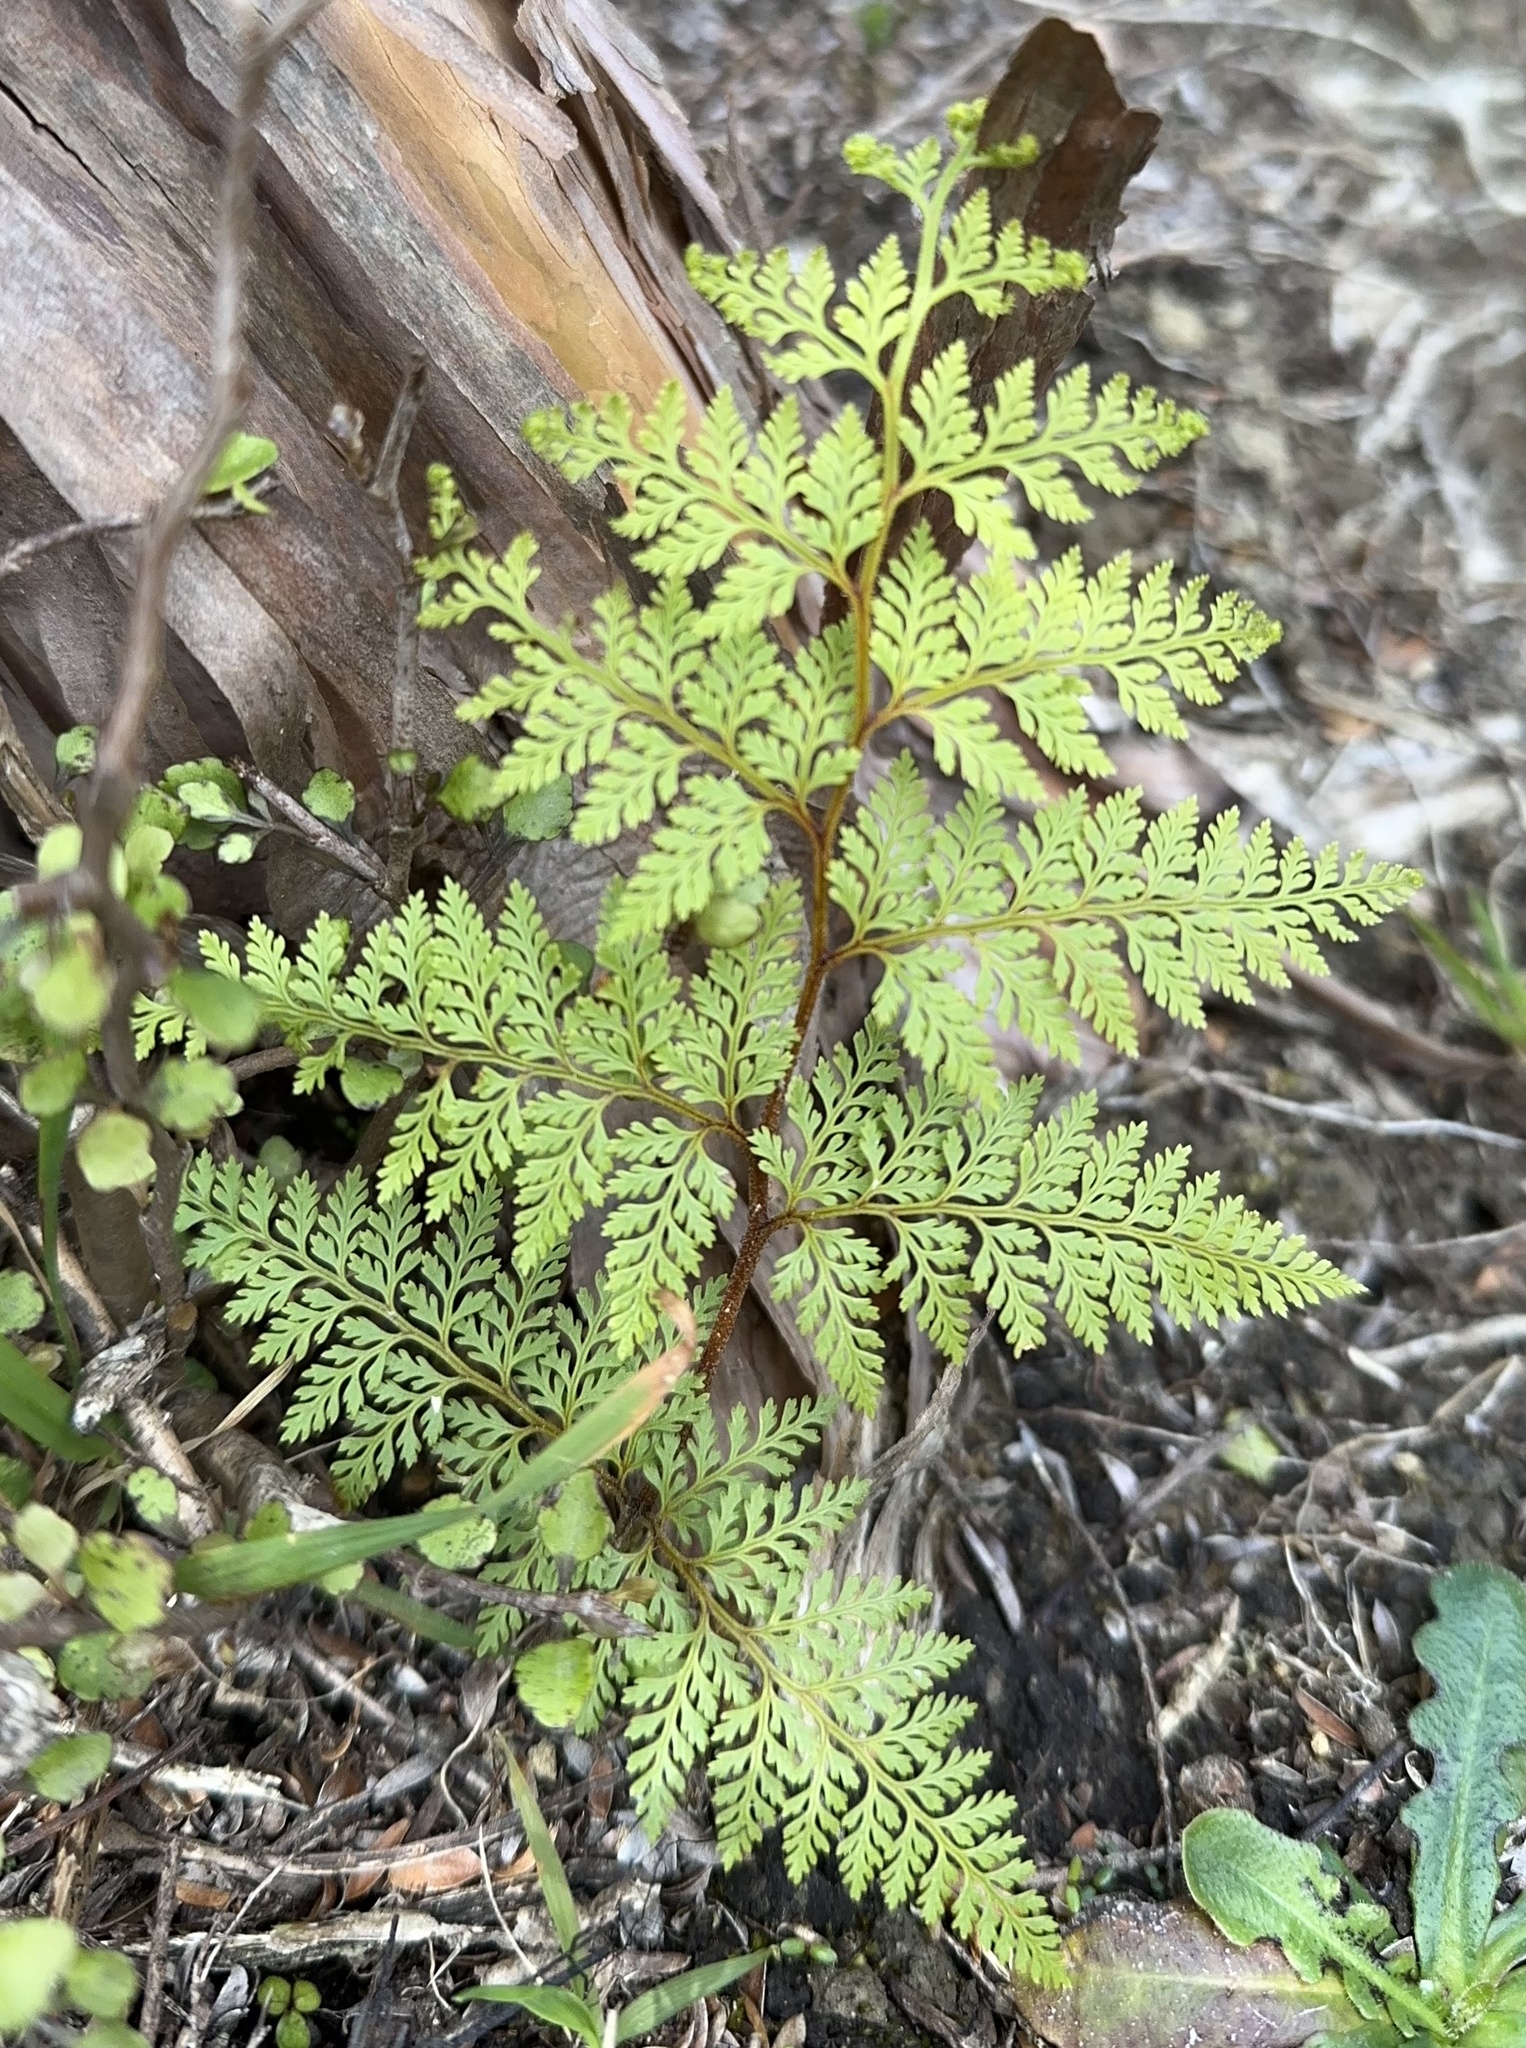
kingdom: Plantae
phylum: Tracheophyta
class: Polypodiopsida
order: Polypodiales
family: Dennstaedtiaceae
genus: Paesia
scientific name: Paesia scaberula
